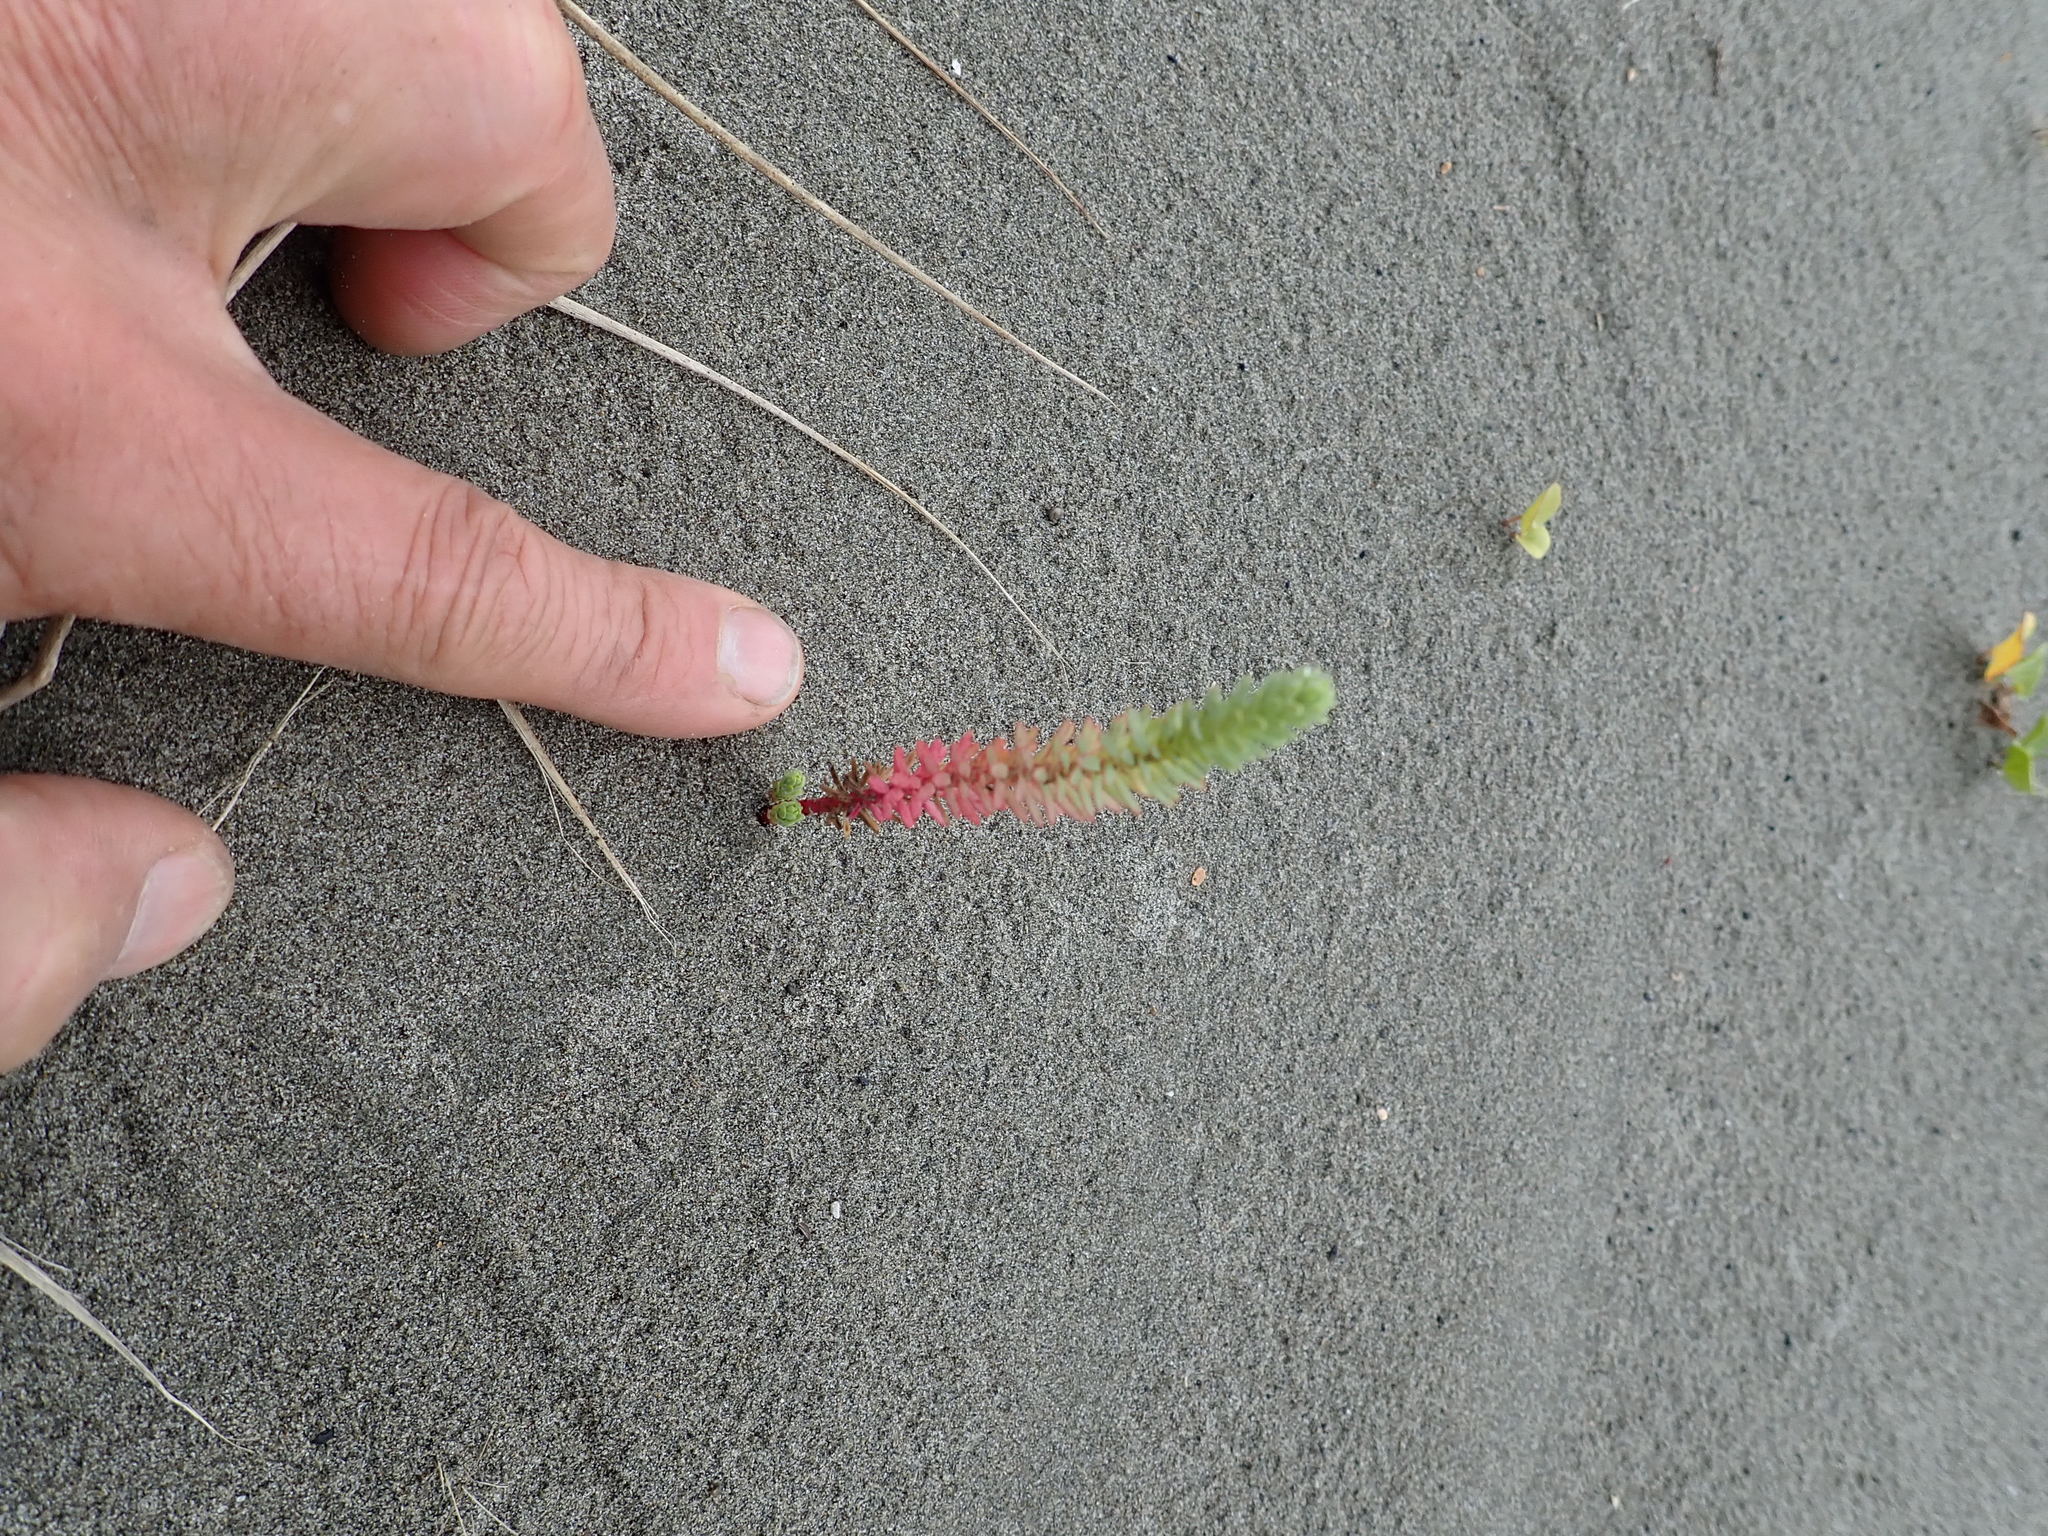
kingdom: Plantae
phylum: Tracheophyta
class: Magnoliopsida
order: Malpighiales
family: Euphorbiaceae
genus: Euphorbia
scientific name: Euphorbia paralias
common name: Sea spurge
